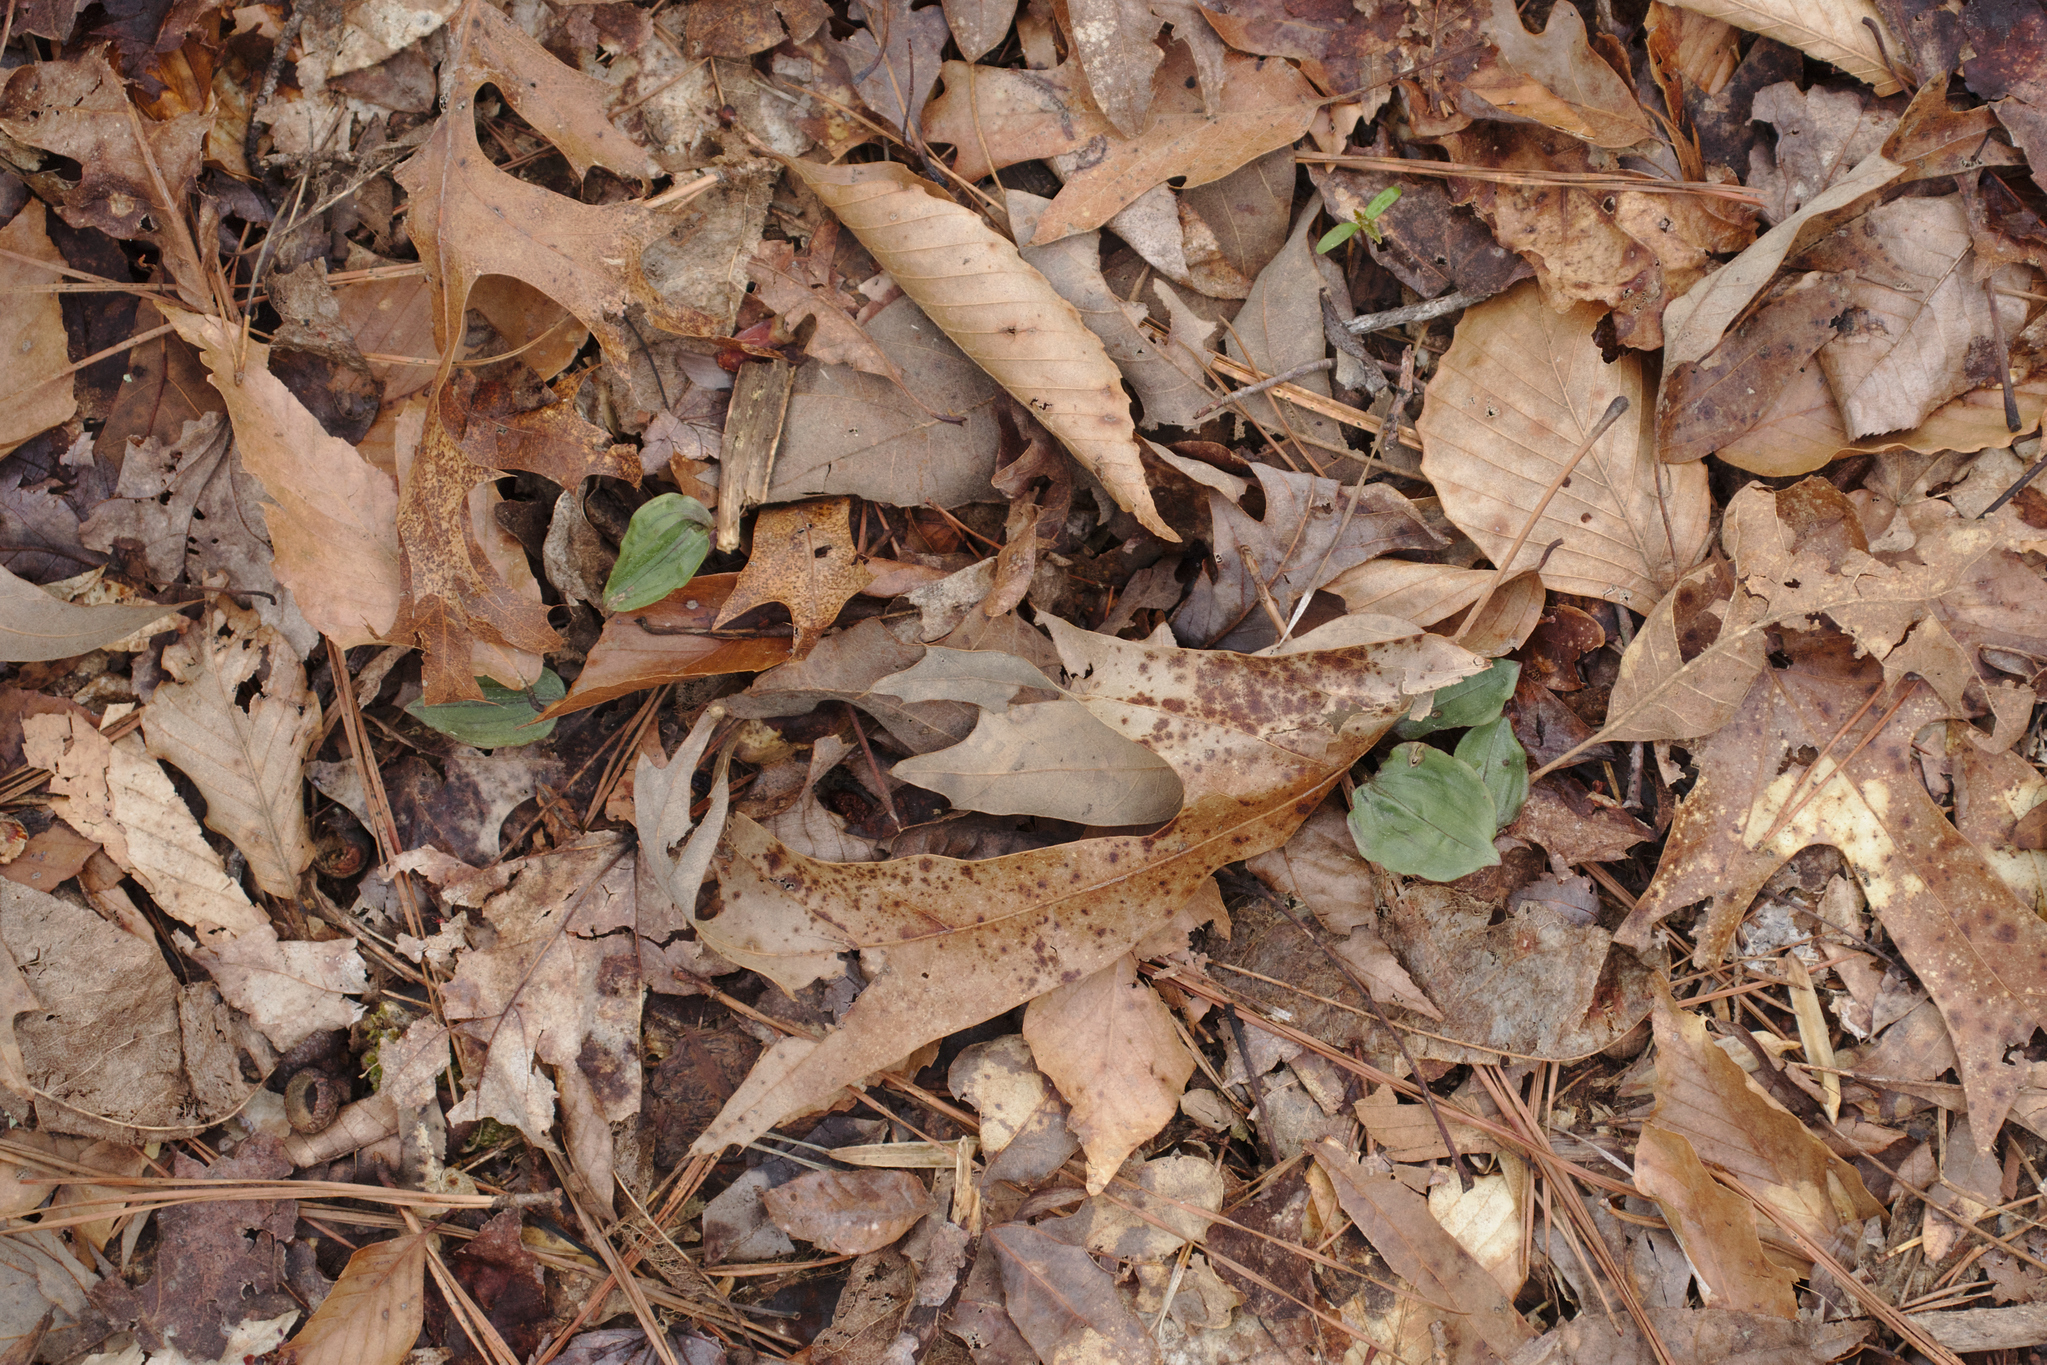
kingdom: Plantae
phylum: Tracheophyta
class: Liliopsida
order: Asparagales
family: Orchidaceae
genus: Tipularia
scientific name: Tipularia discolor
